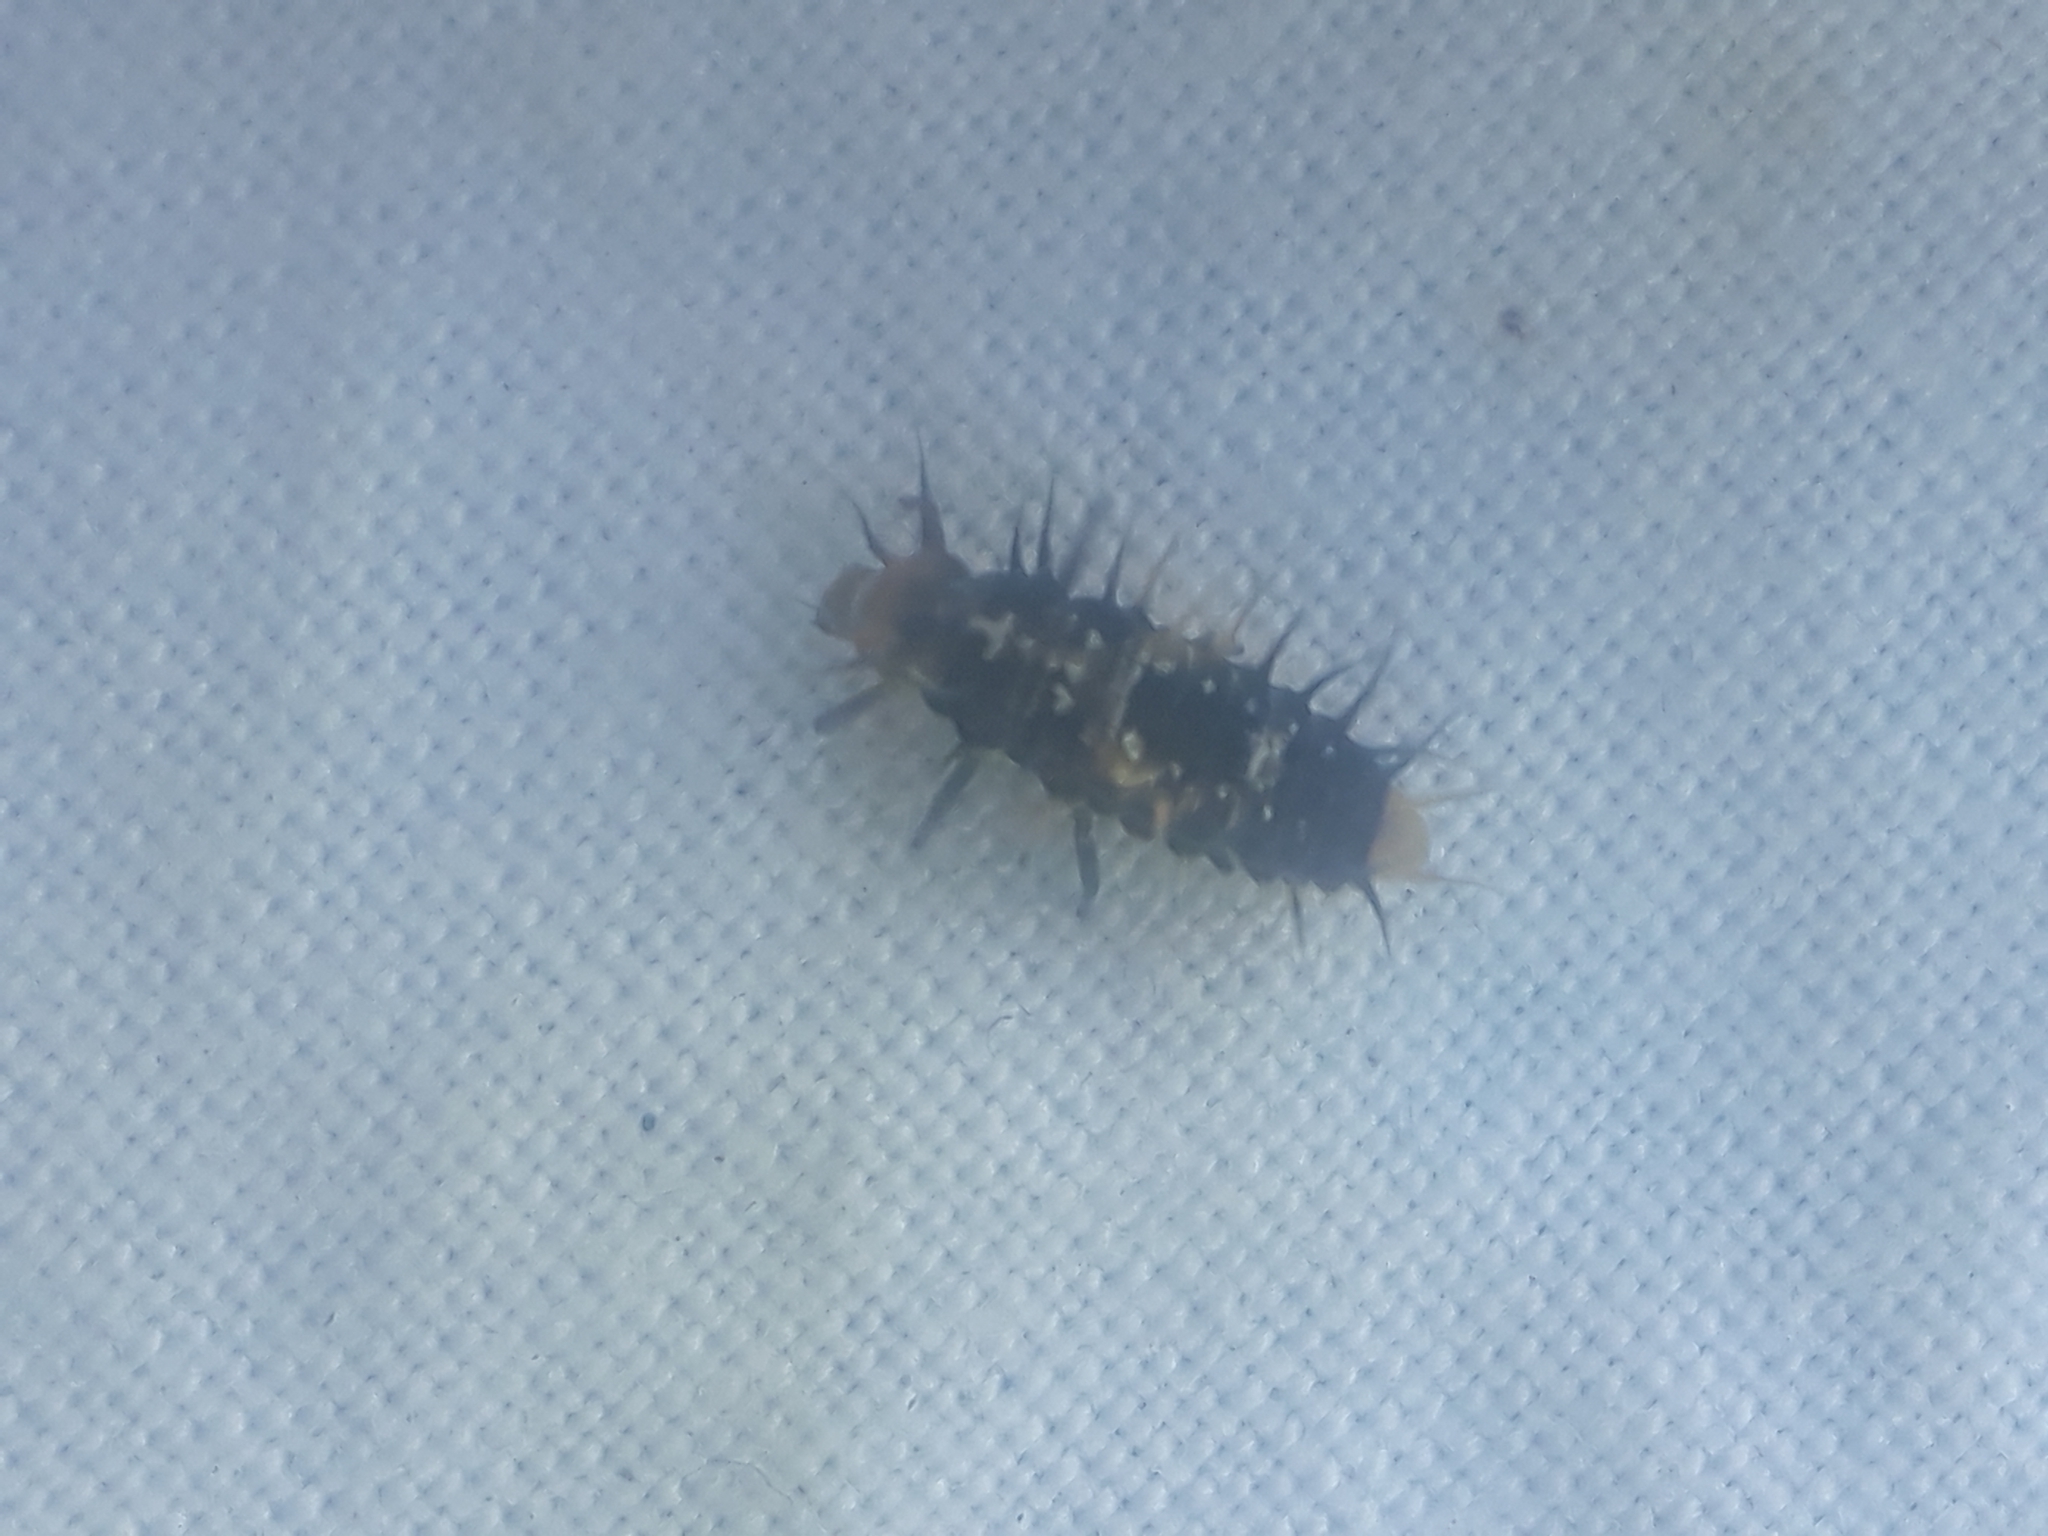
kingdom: Animalia
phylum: Arthropoda
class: Insecta
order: Coleoptera
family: Coccinellidae
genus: Scymnodes
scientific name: Scymnodes lividigaster
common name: Yellowshouldered lady beetle
